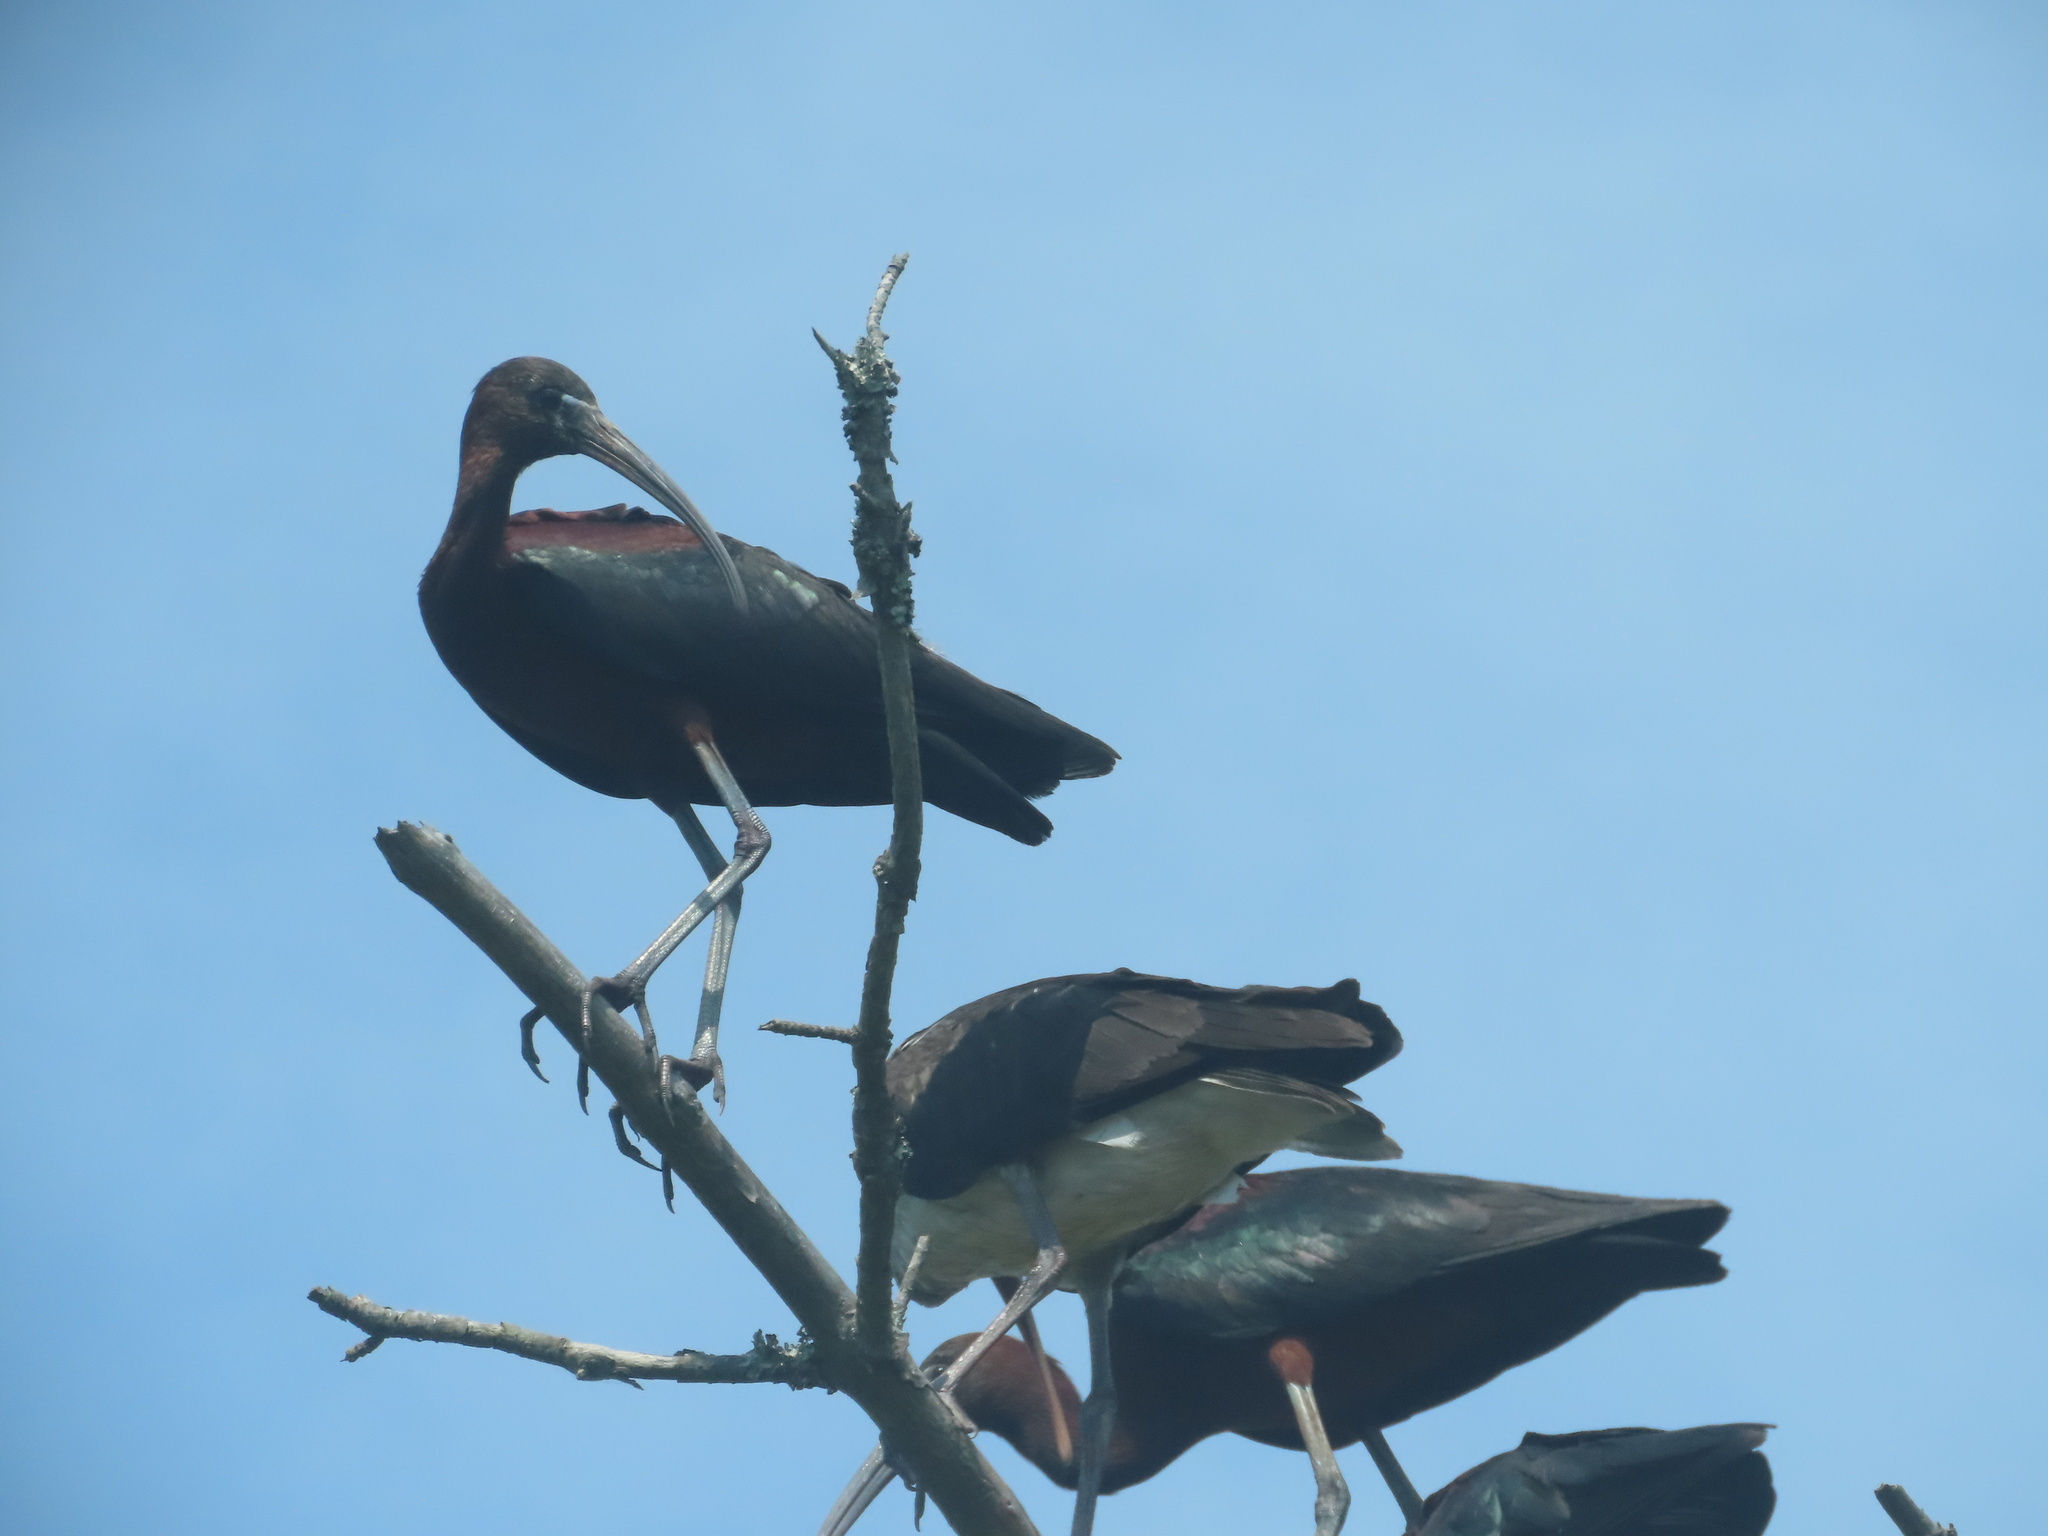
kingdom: Animalia
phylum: Chordata
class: Aves
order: Pelecaniformes
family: Threskiornithidae
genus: Plegadis
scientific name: Plegadis falcinellus
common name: Glossy ibis
